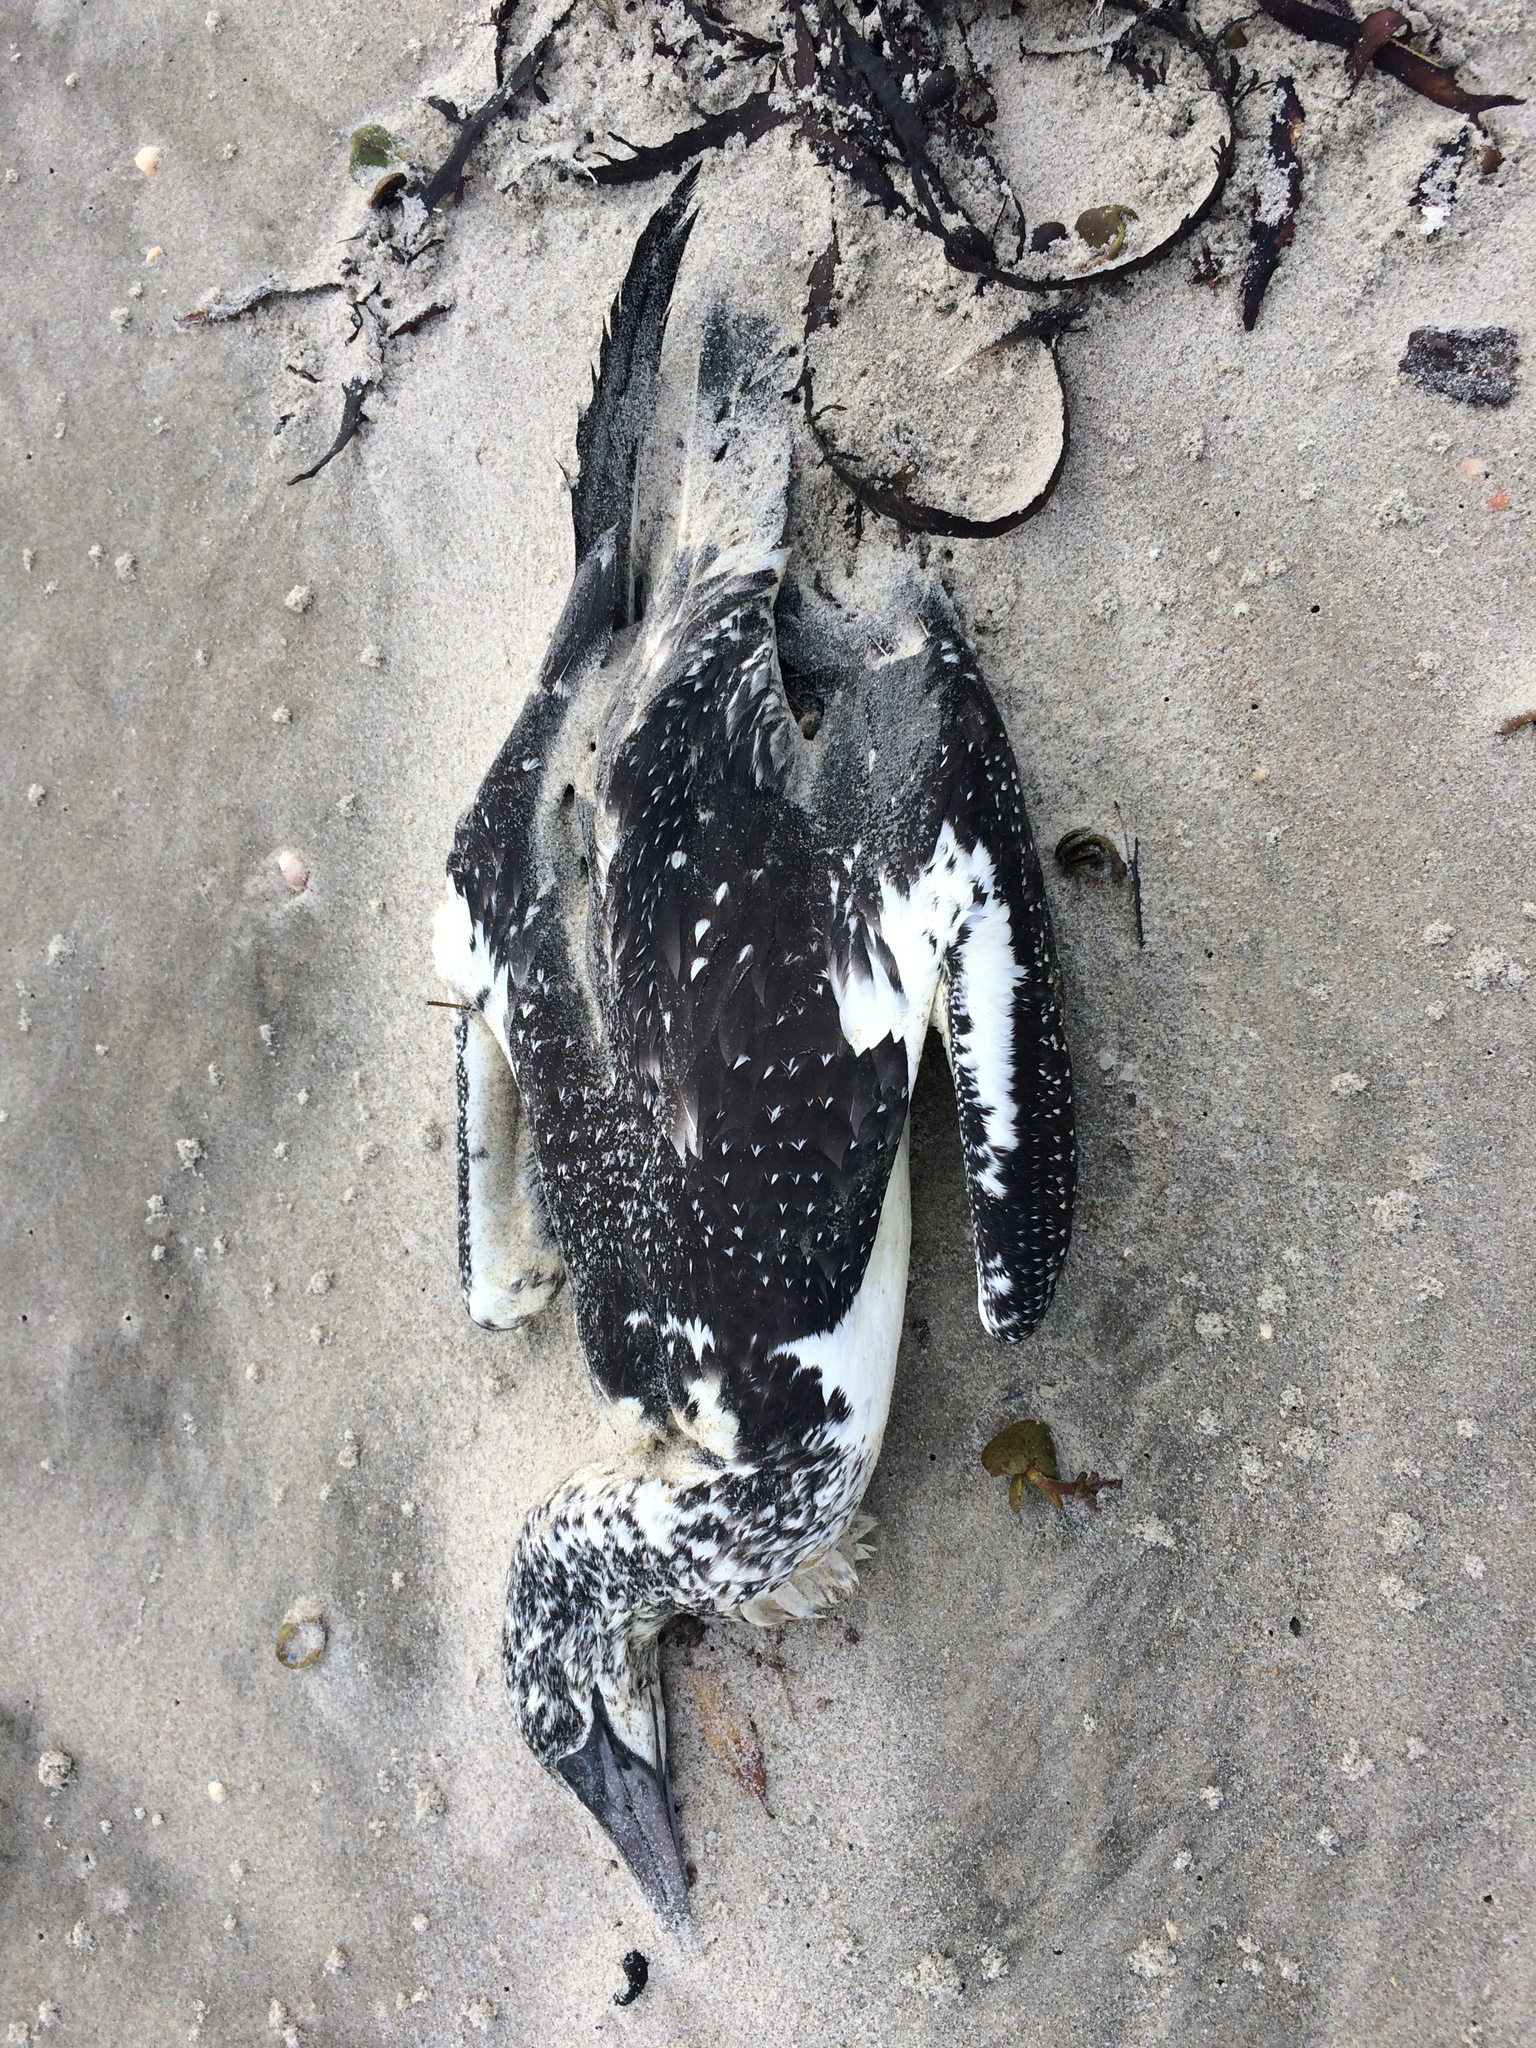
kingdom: Animalia
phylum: Chordata
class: Aves
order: Suliformes
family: Sulidae
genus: Morus
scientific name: Morus serrator
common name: Australasian gannet
